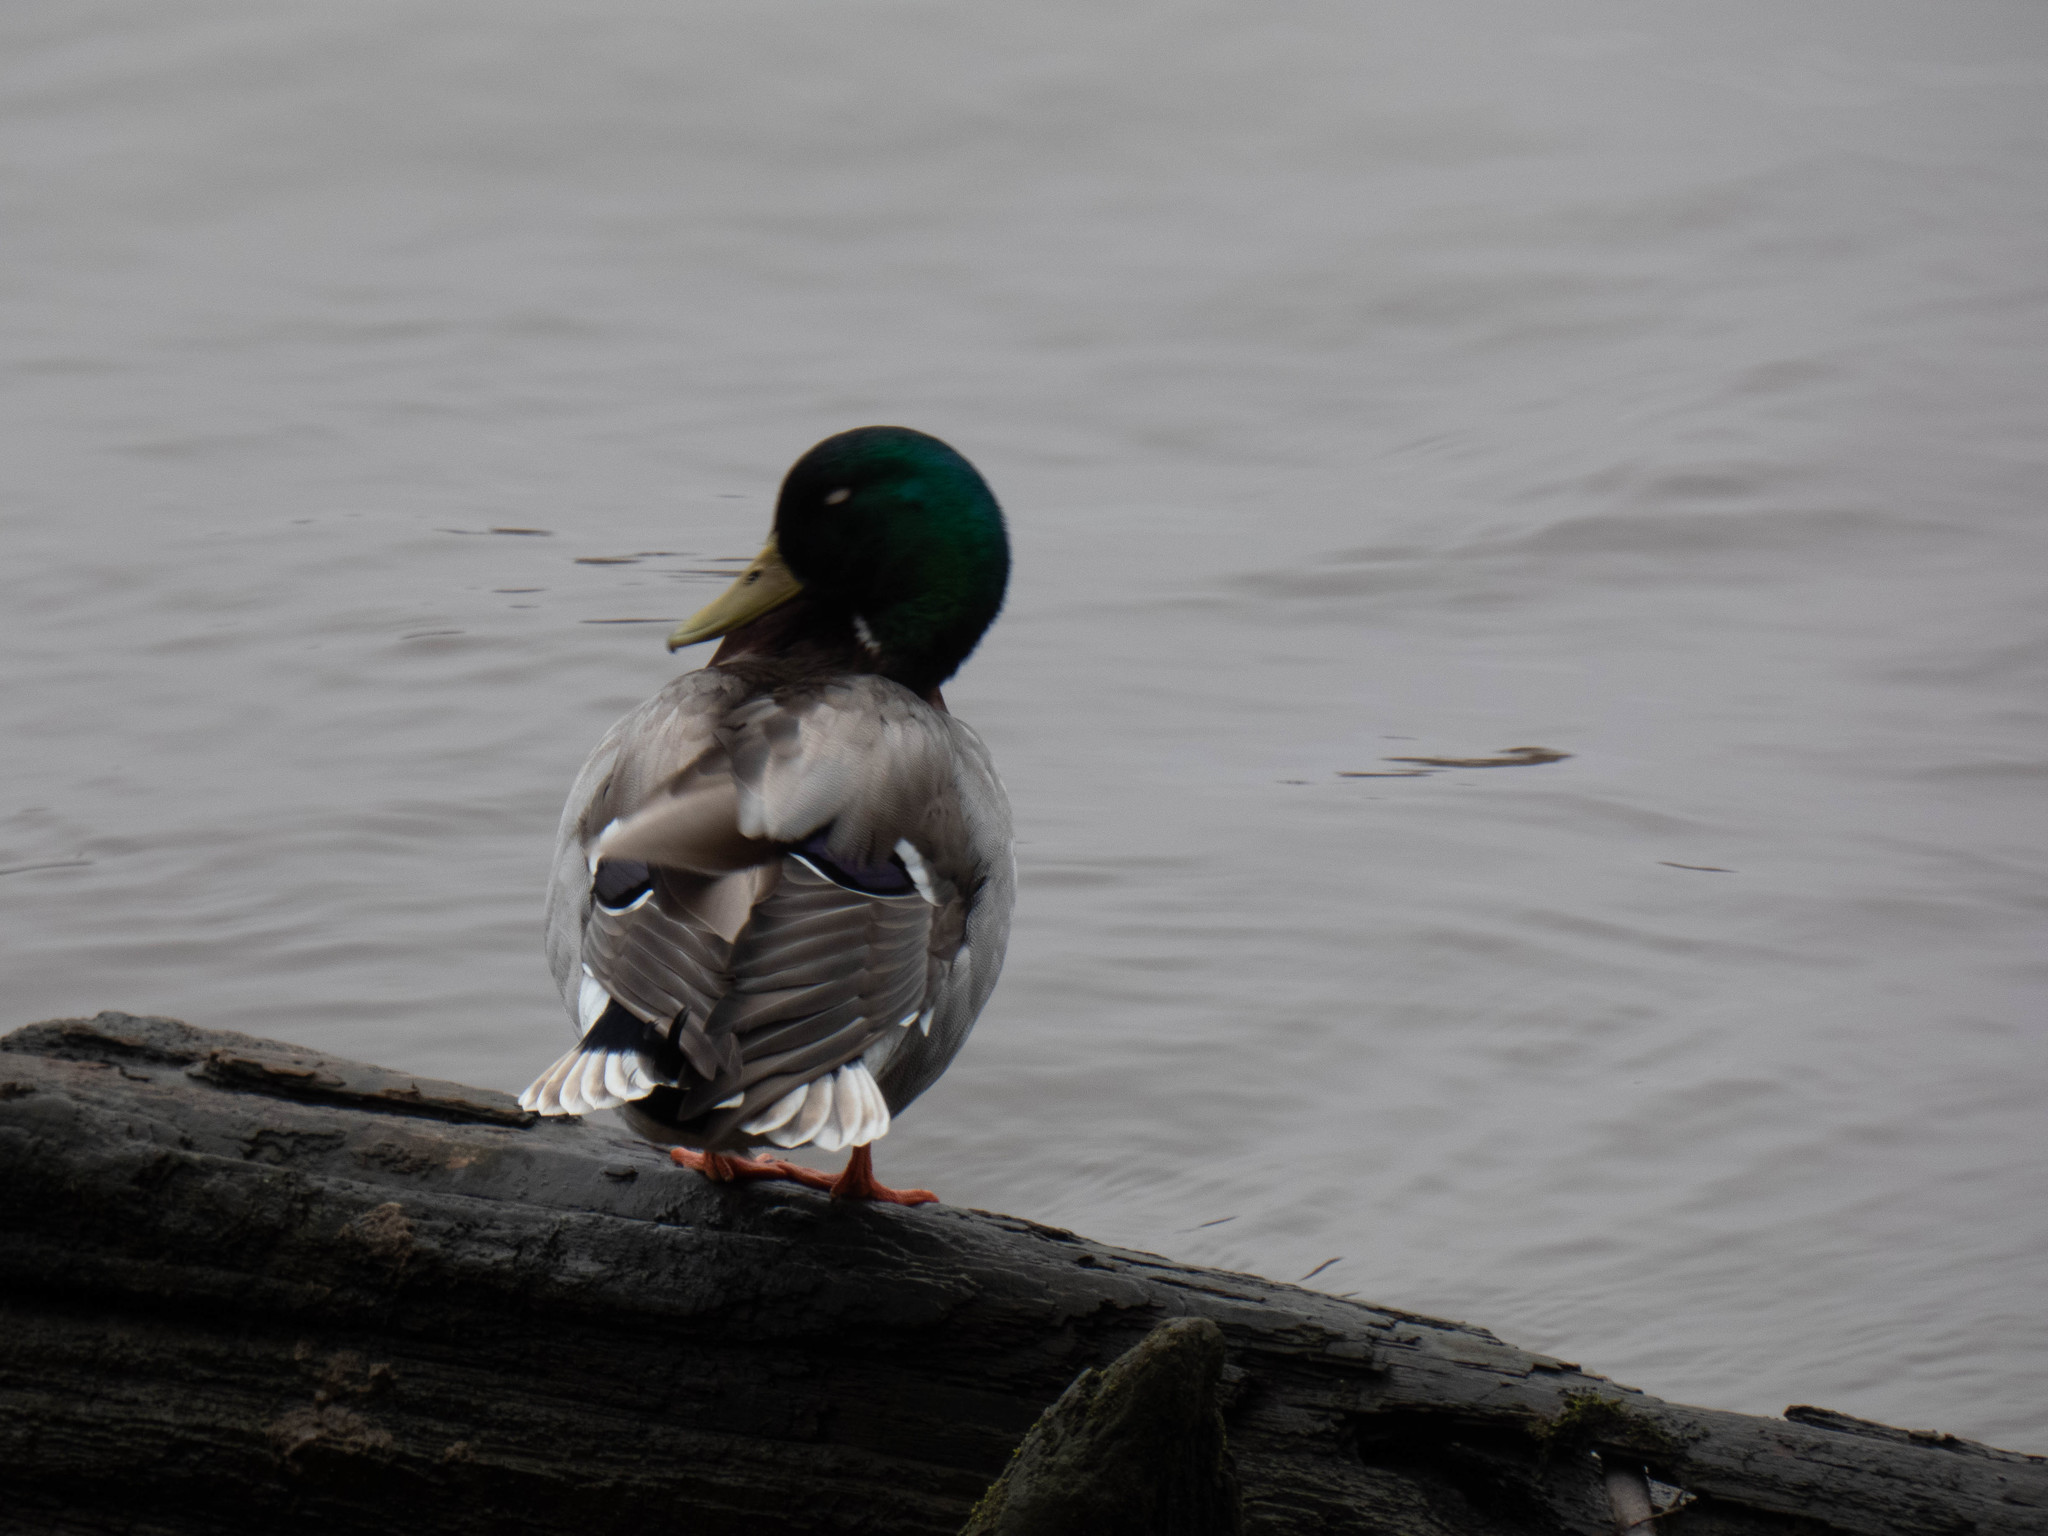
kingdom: Animalia
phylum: Chordata
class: Aves
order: Anseriformes
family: Anatidae
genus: Anas
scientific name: Anas platyrhynchos
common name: Mallard
